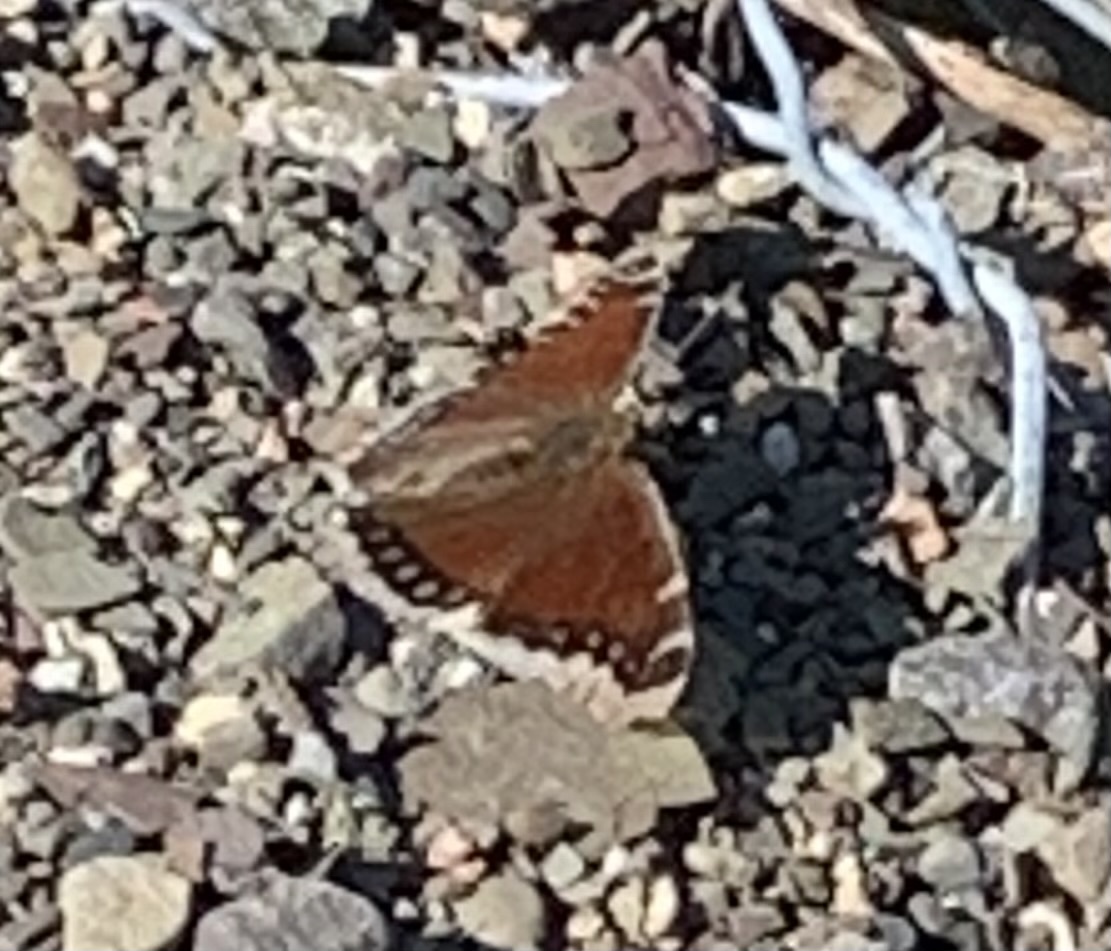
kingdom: Animalia
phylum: Arthropoda
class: Insecta
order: Lepidoptera
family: Nymphalidae
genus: Nymphalis
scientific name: Nymphalis antiopa
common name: Camberwell beauty
